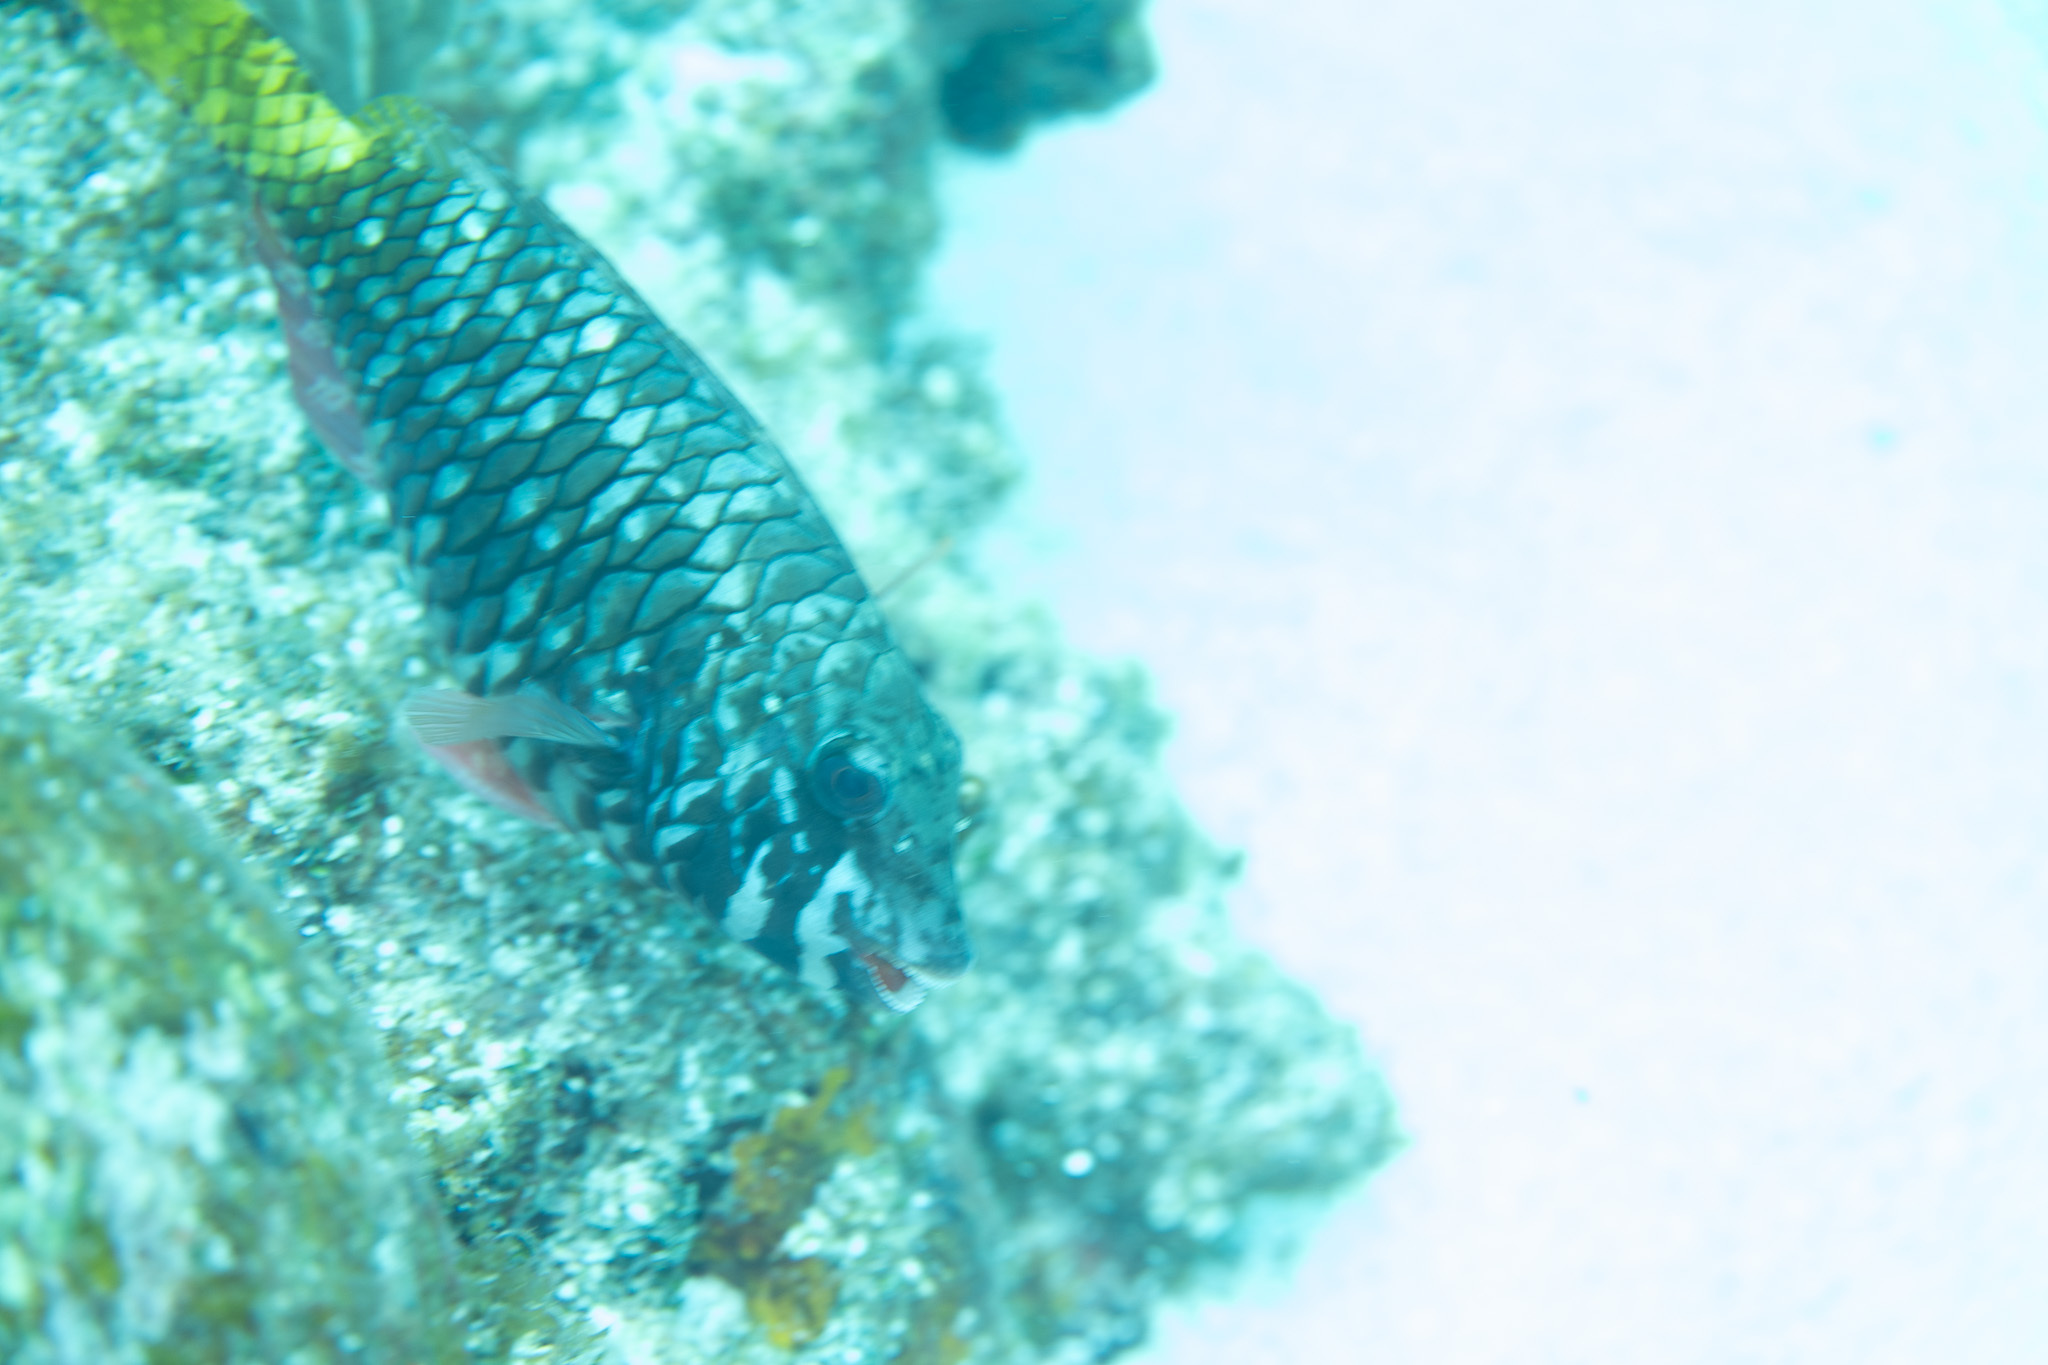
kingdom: Animalia
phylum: Chordata
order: Perciformes
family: Scaridae
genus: Sparisoma
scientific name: Sparisoma rubripinne
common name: Redfin parrotfish
